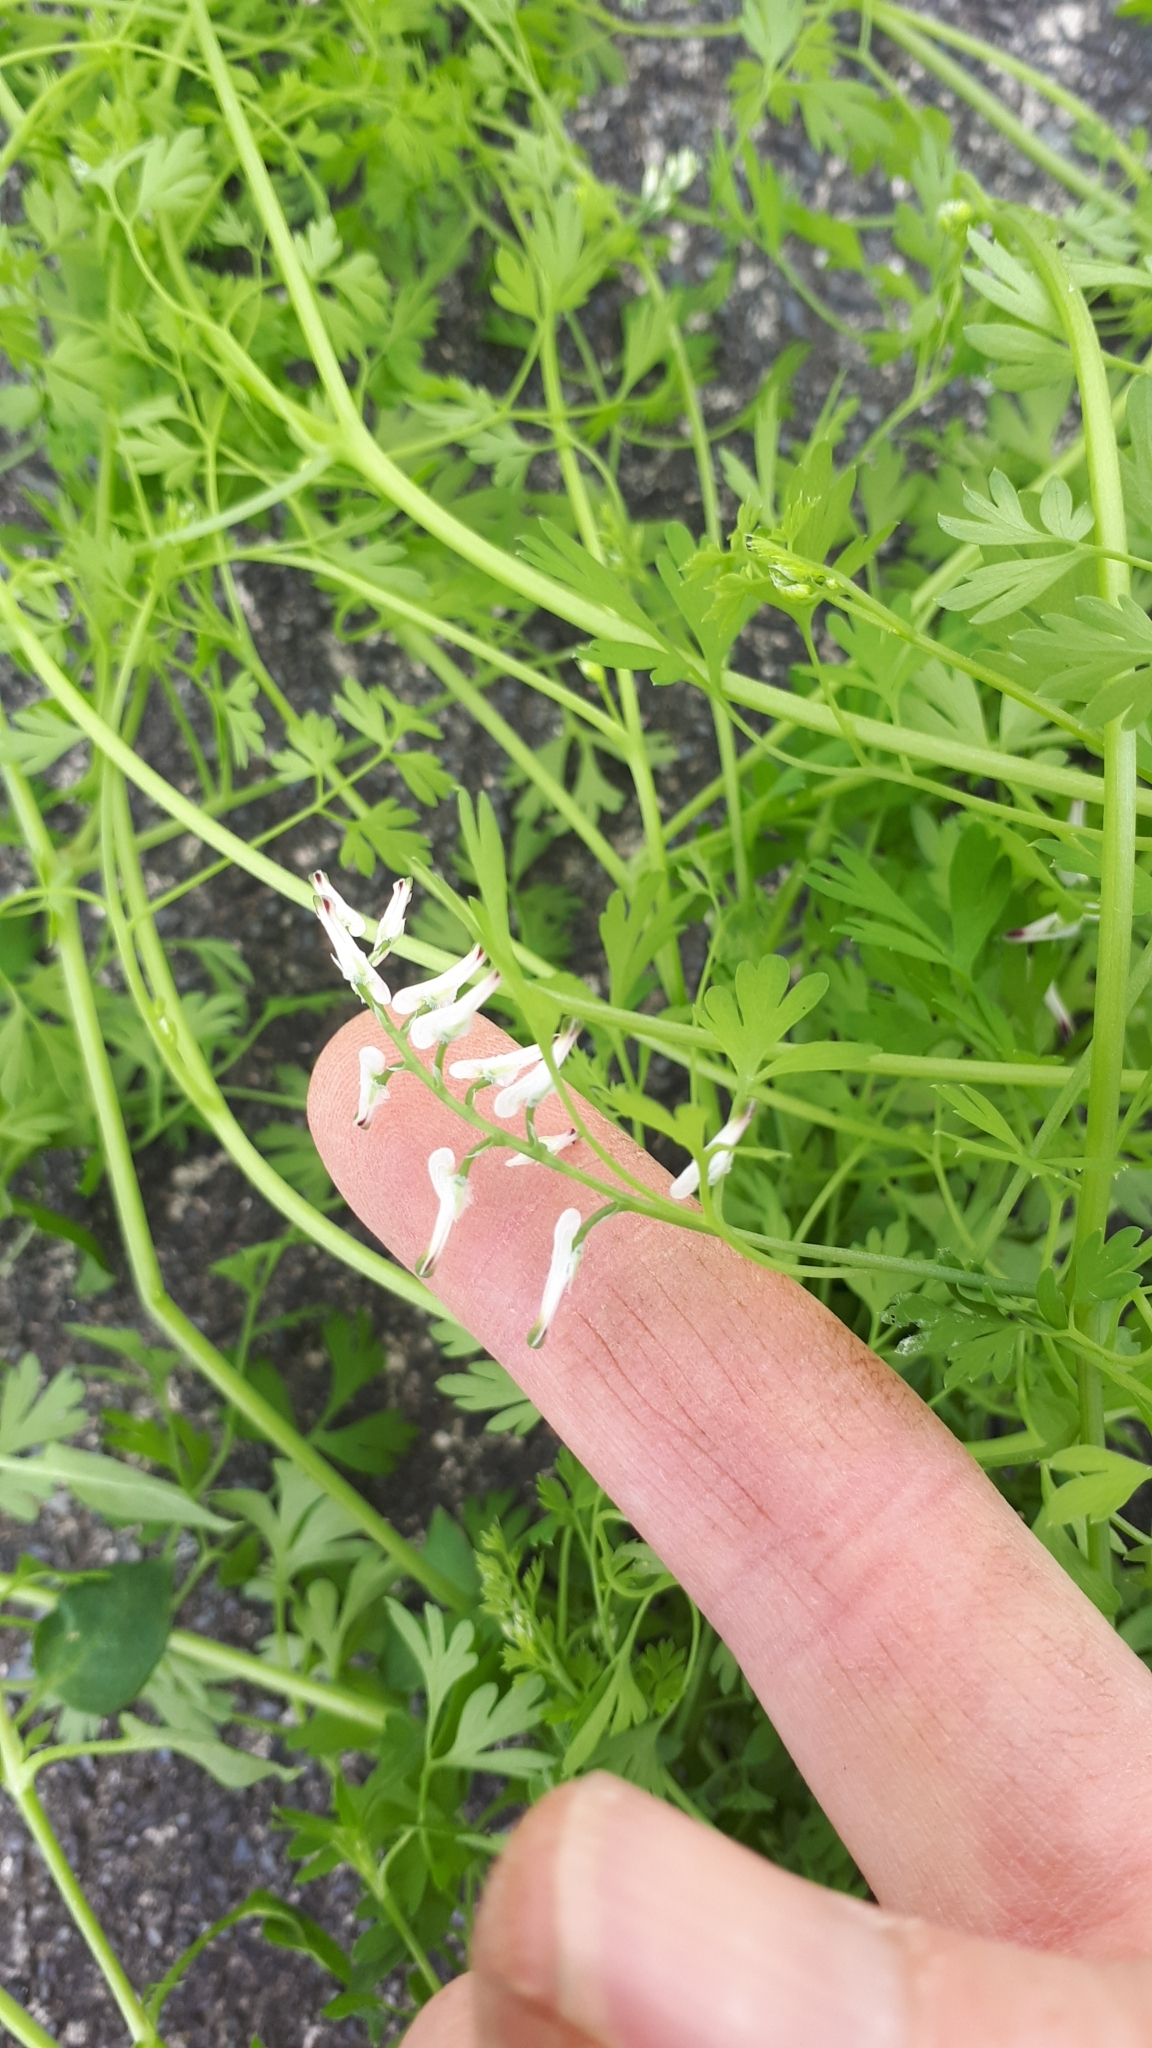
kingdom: Plantae
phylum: Tracheophyta
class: Magnoliopsida
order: Ranunculales
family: Papaveraceae
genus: Fumaria
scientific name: Fumaria capreolata
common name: White ramping-fumitory
